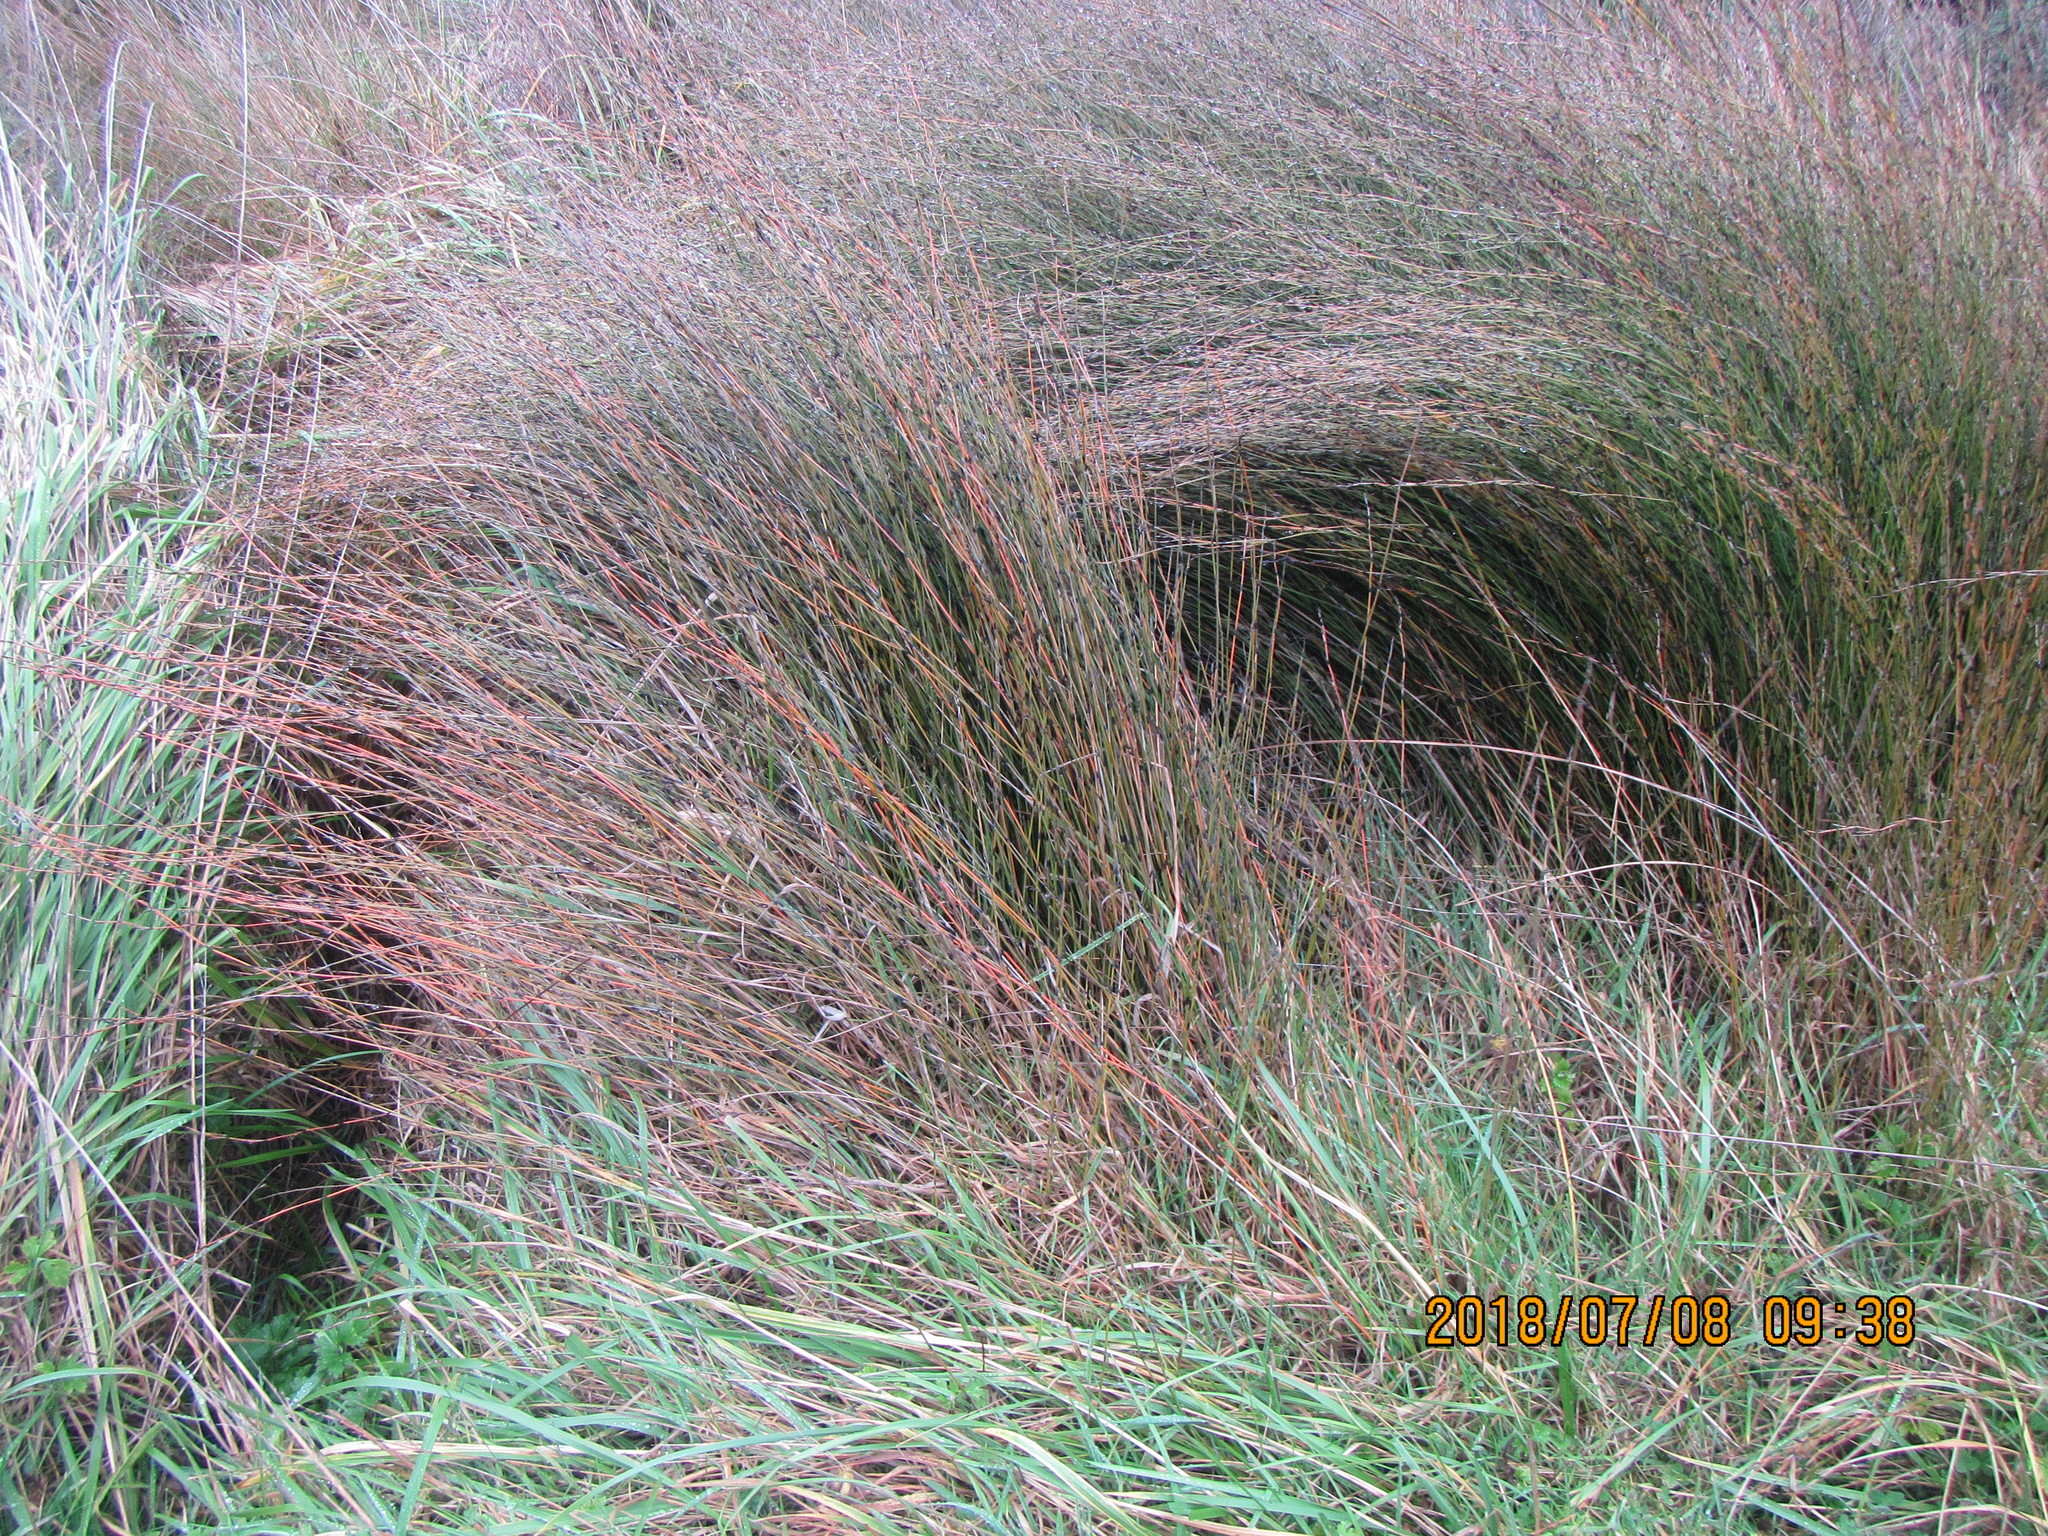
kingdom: Plantae
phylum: Tracheophyta
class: Liliopsida
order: Poales
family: Restionaceae
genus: Apodasmia
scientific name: Apodasmia similis
